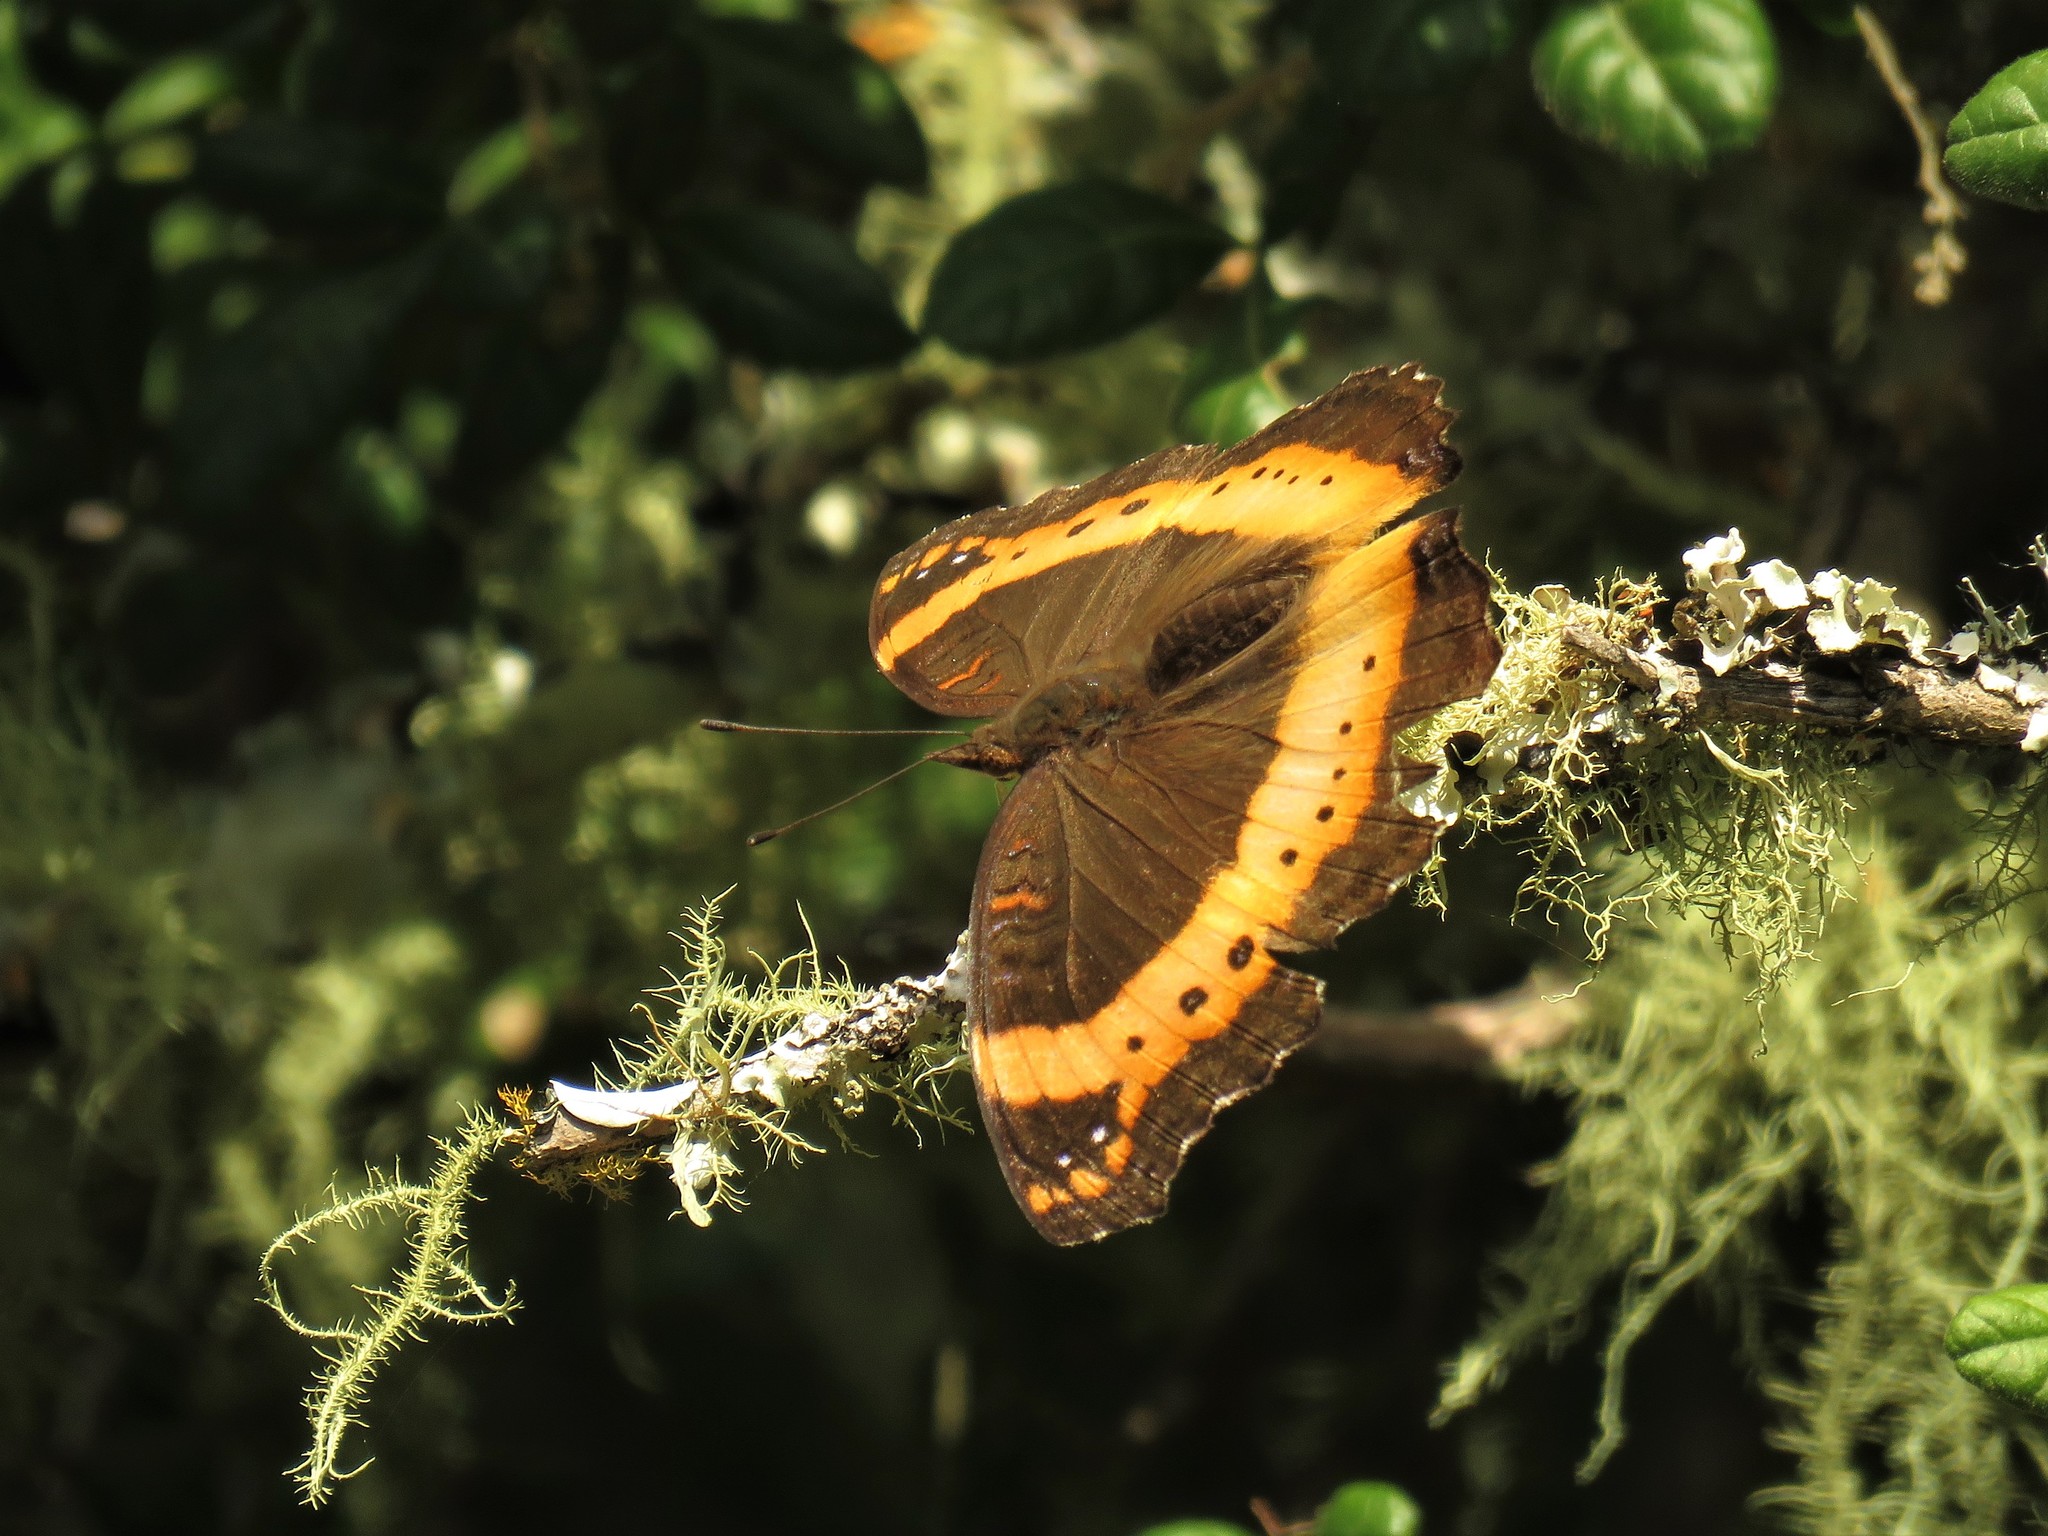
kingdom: Animalia
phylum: Arthropoda
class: Insecta
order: Lepidoptera
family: Nymphalidae
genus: Junonia
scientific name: Junonia archesia
